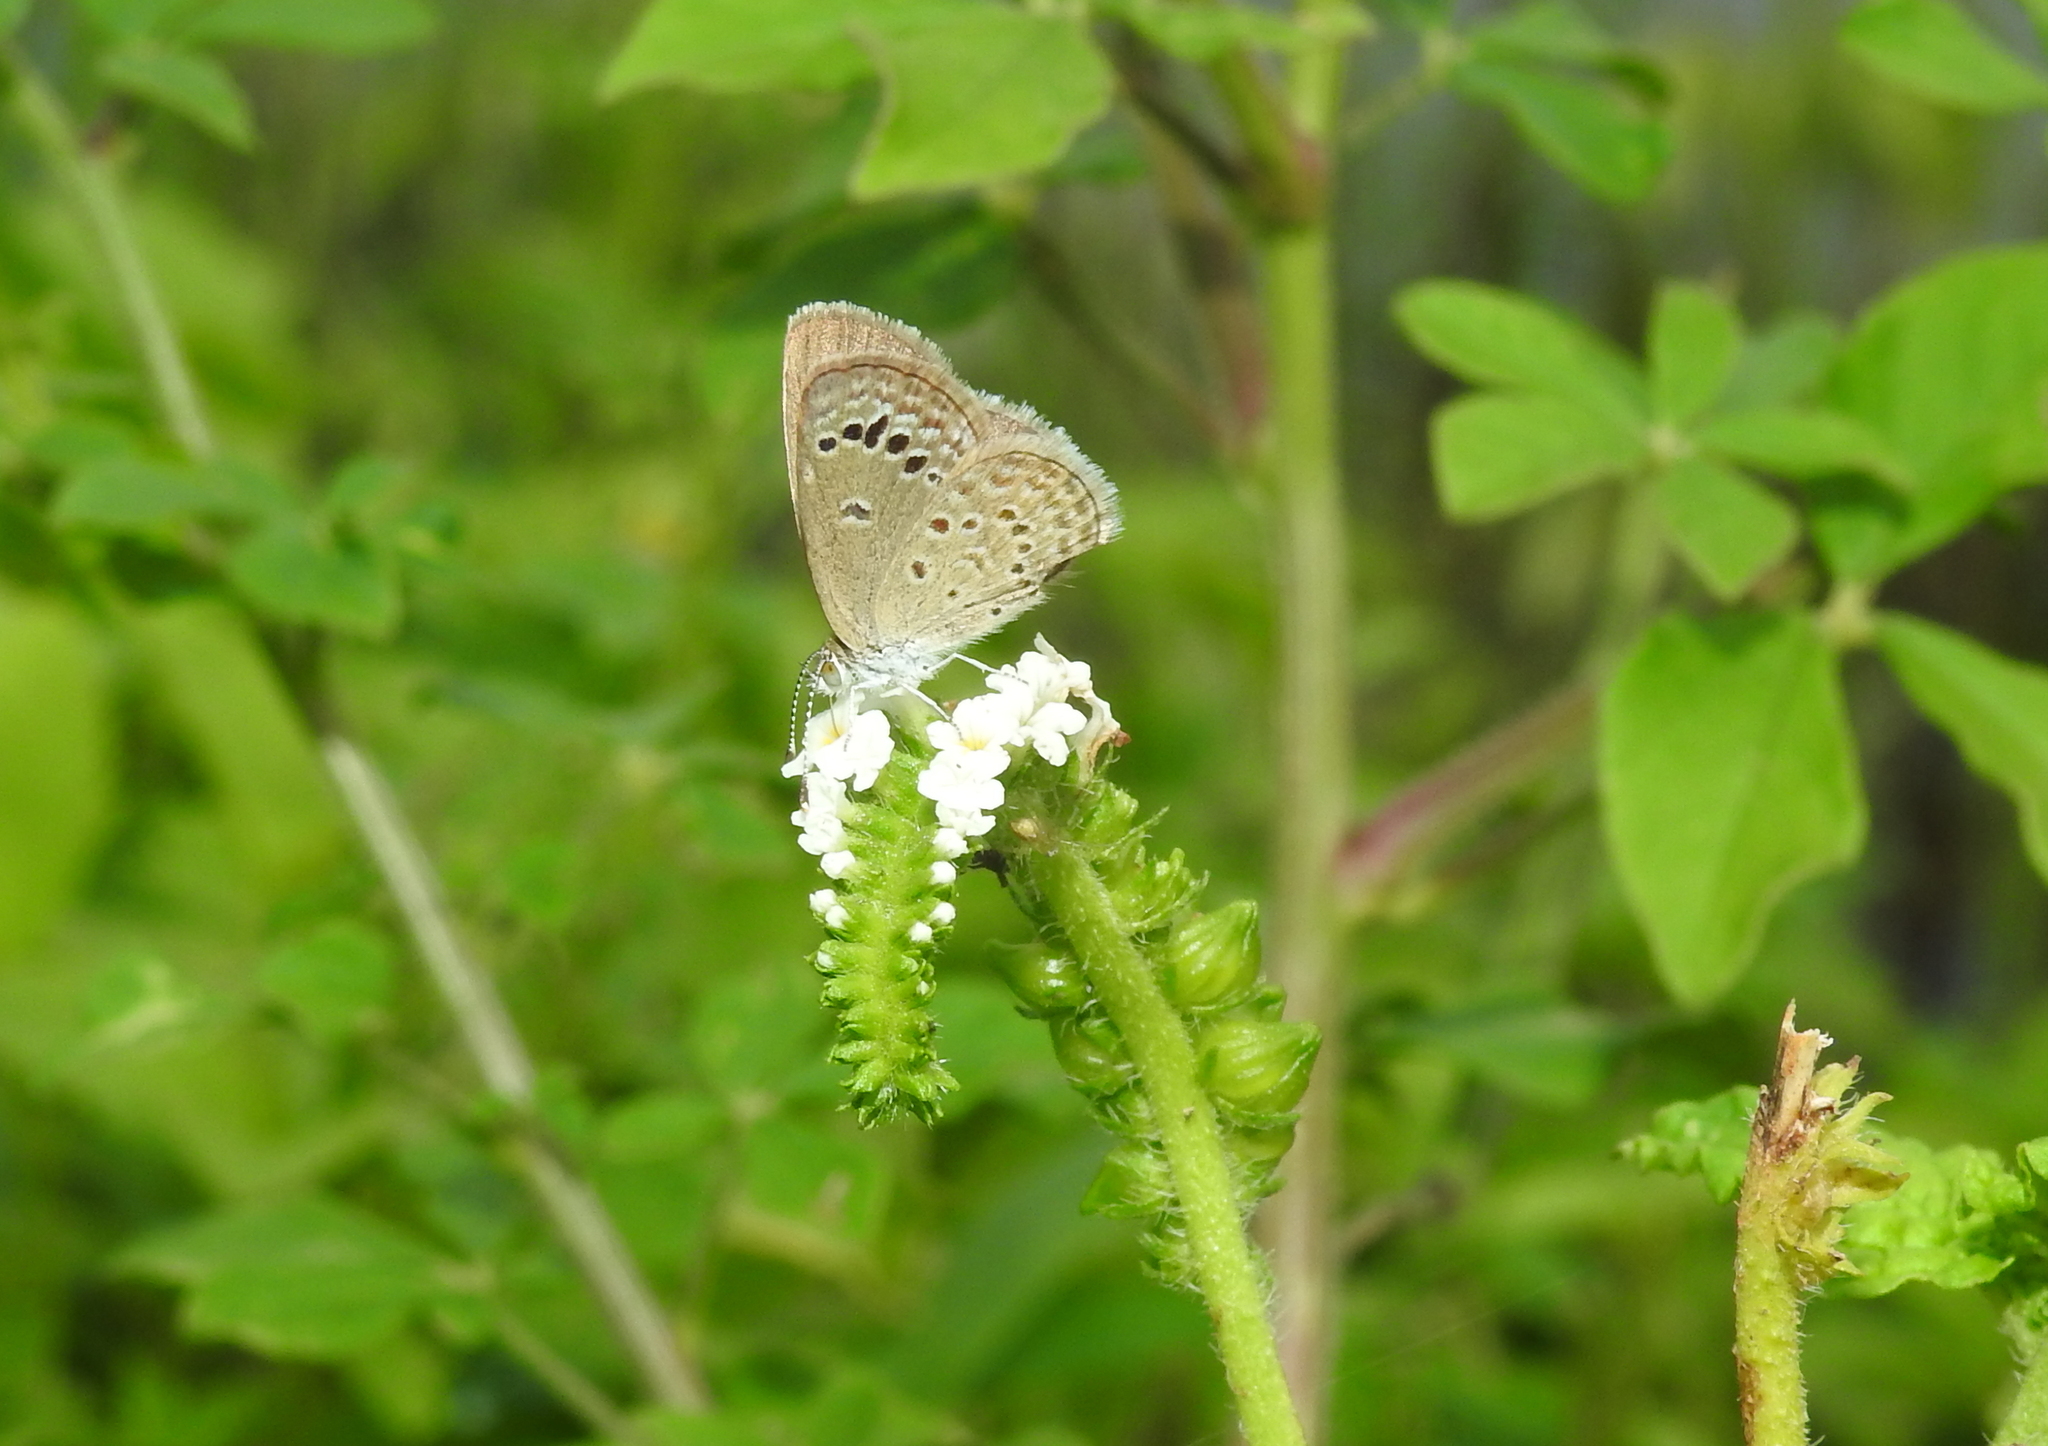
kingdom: Animalia
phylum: Arthropoda
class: Insecta
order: Lepidoptera
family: Lycaenidae
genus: Zizina
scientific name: Zizina otis
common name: Lesser grass blue
